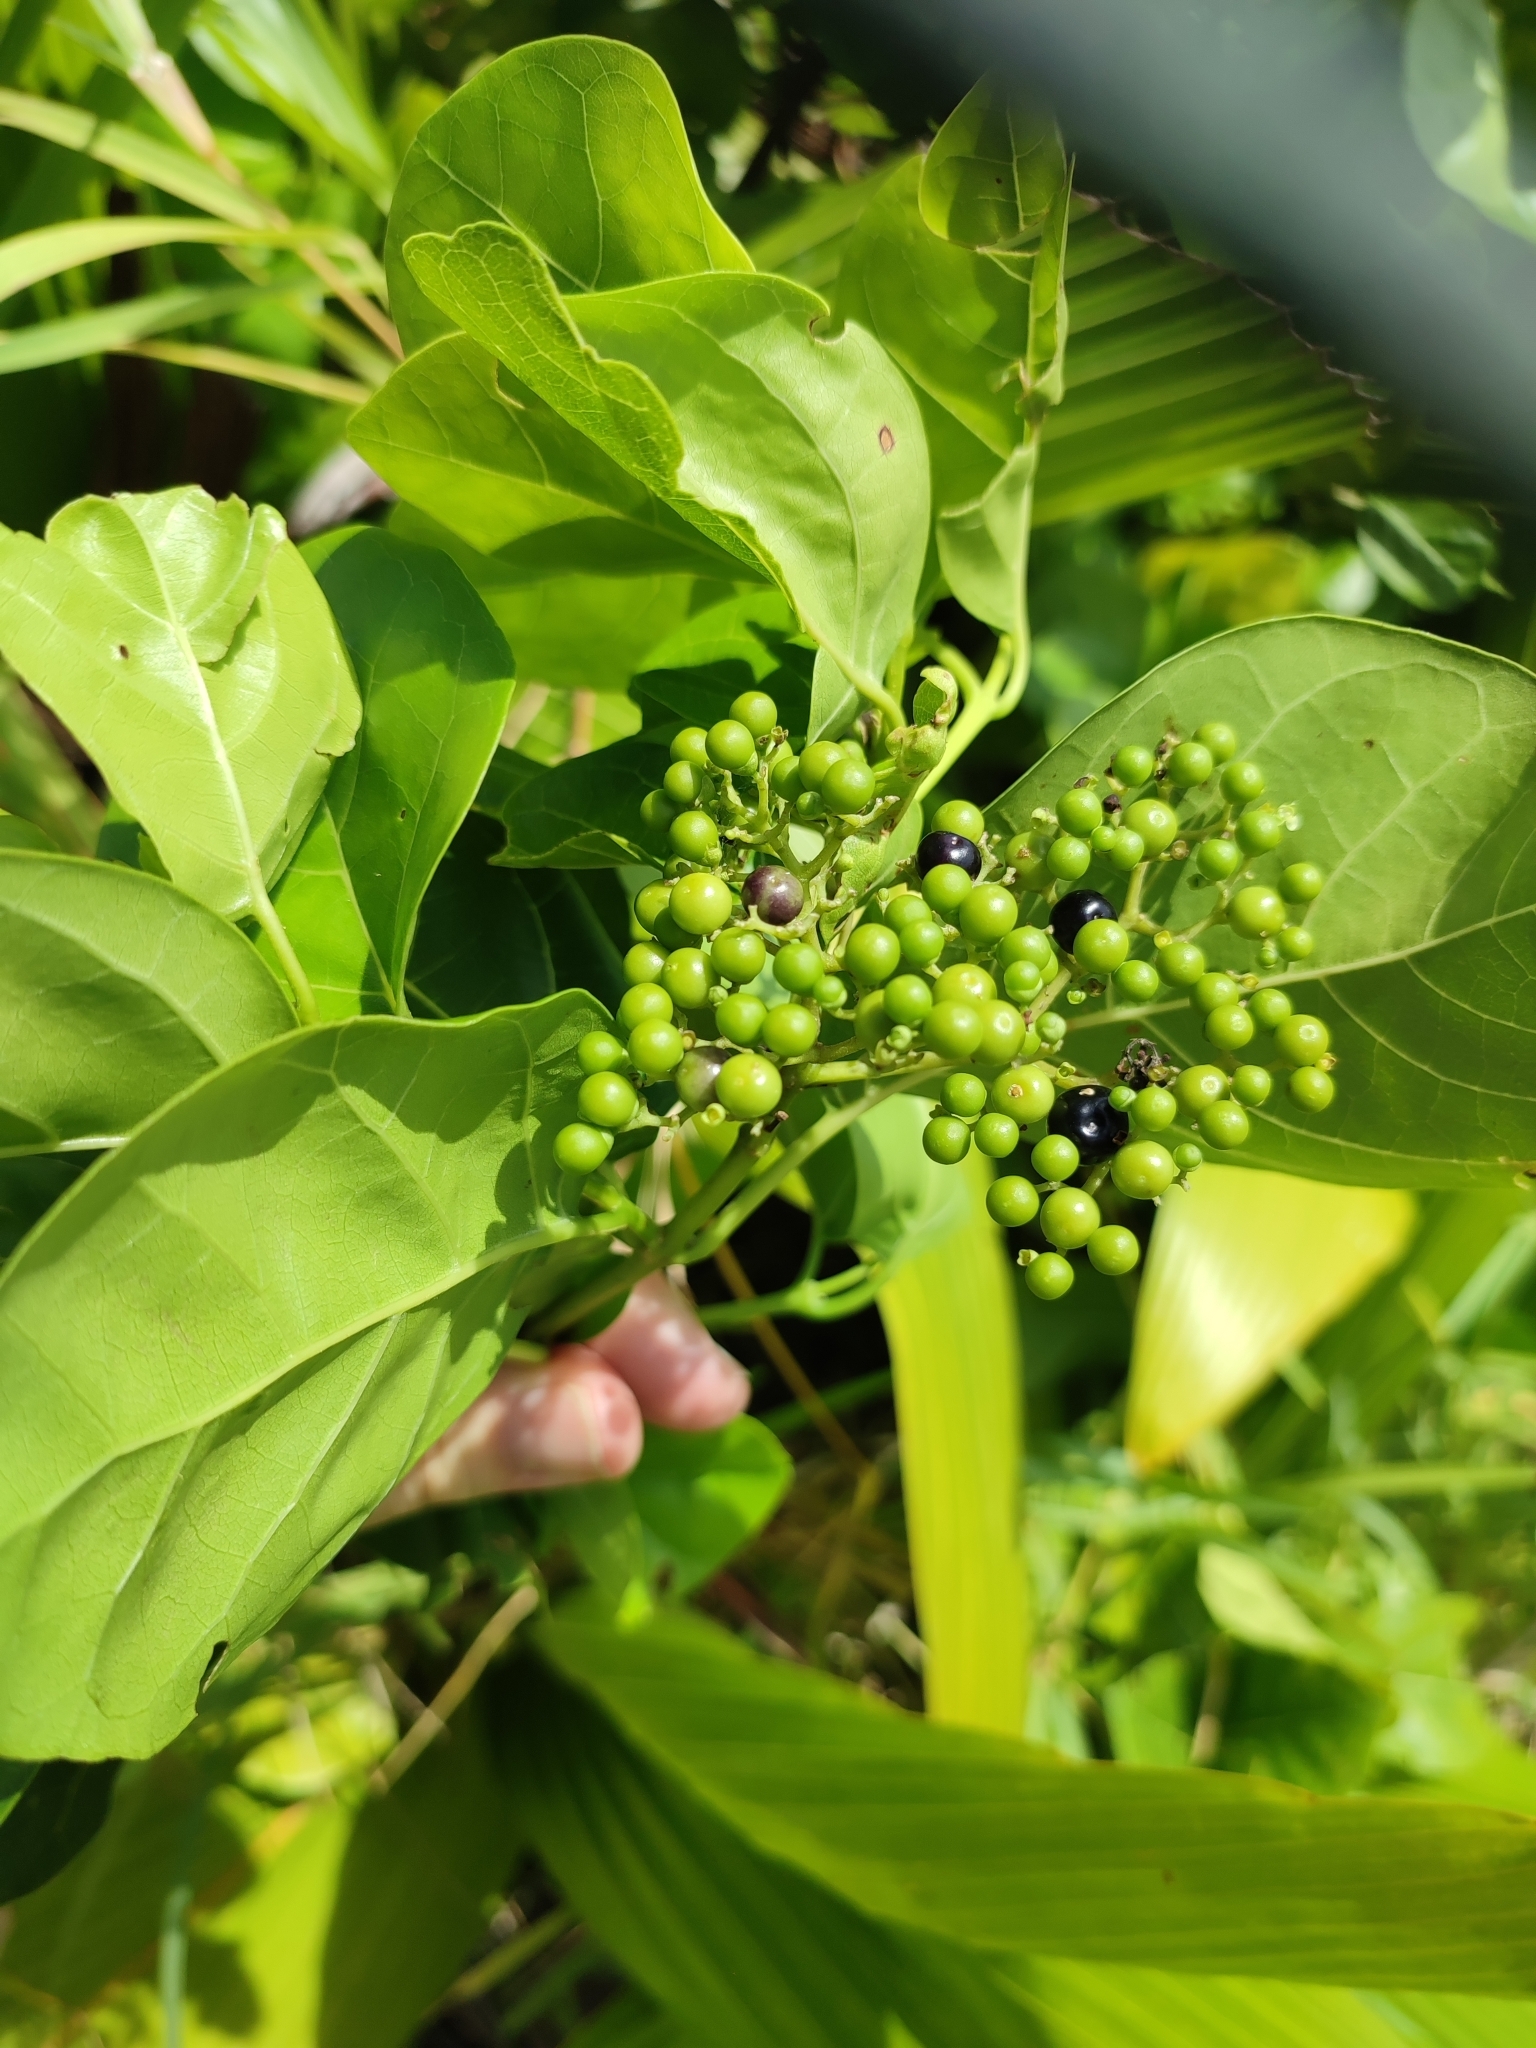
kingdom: Plantae
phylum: Tracheophyta
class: Magnoliopsida
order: Lamiales
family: Lamiaceae
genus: Premna
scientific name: Premna serratifolia
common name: Bastard guelder
